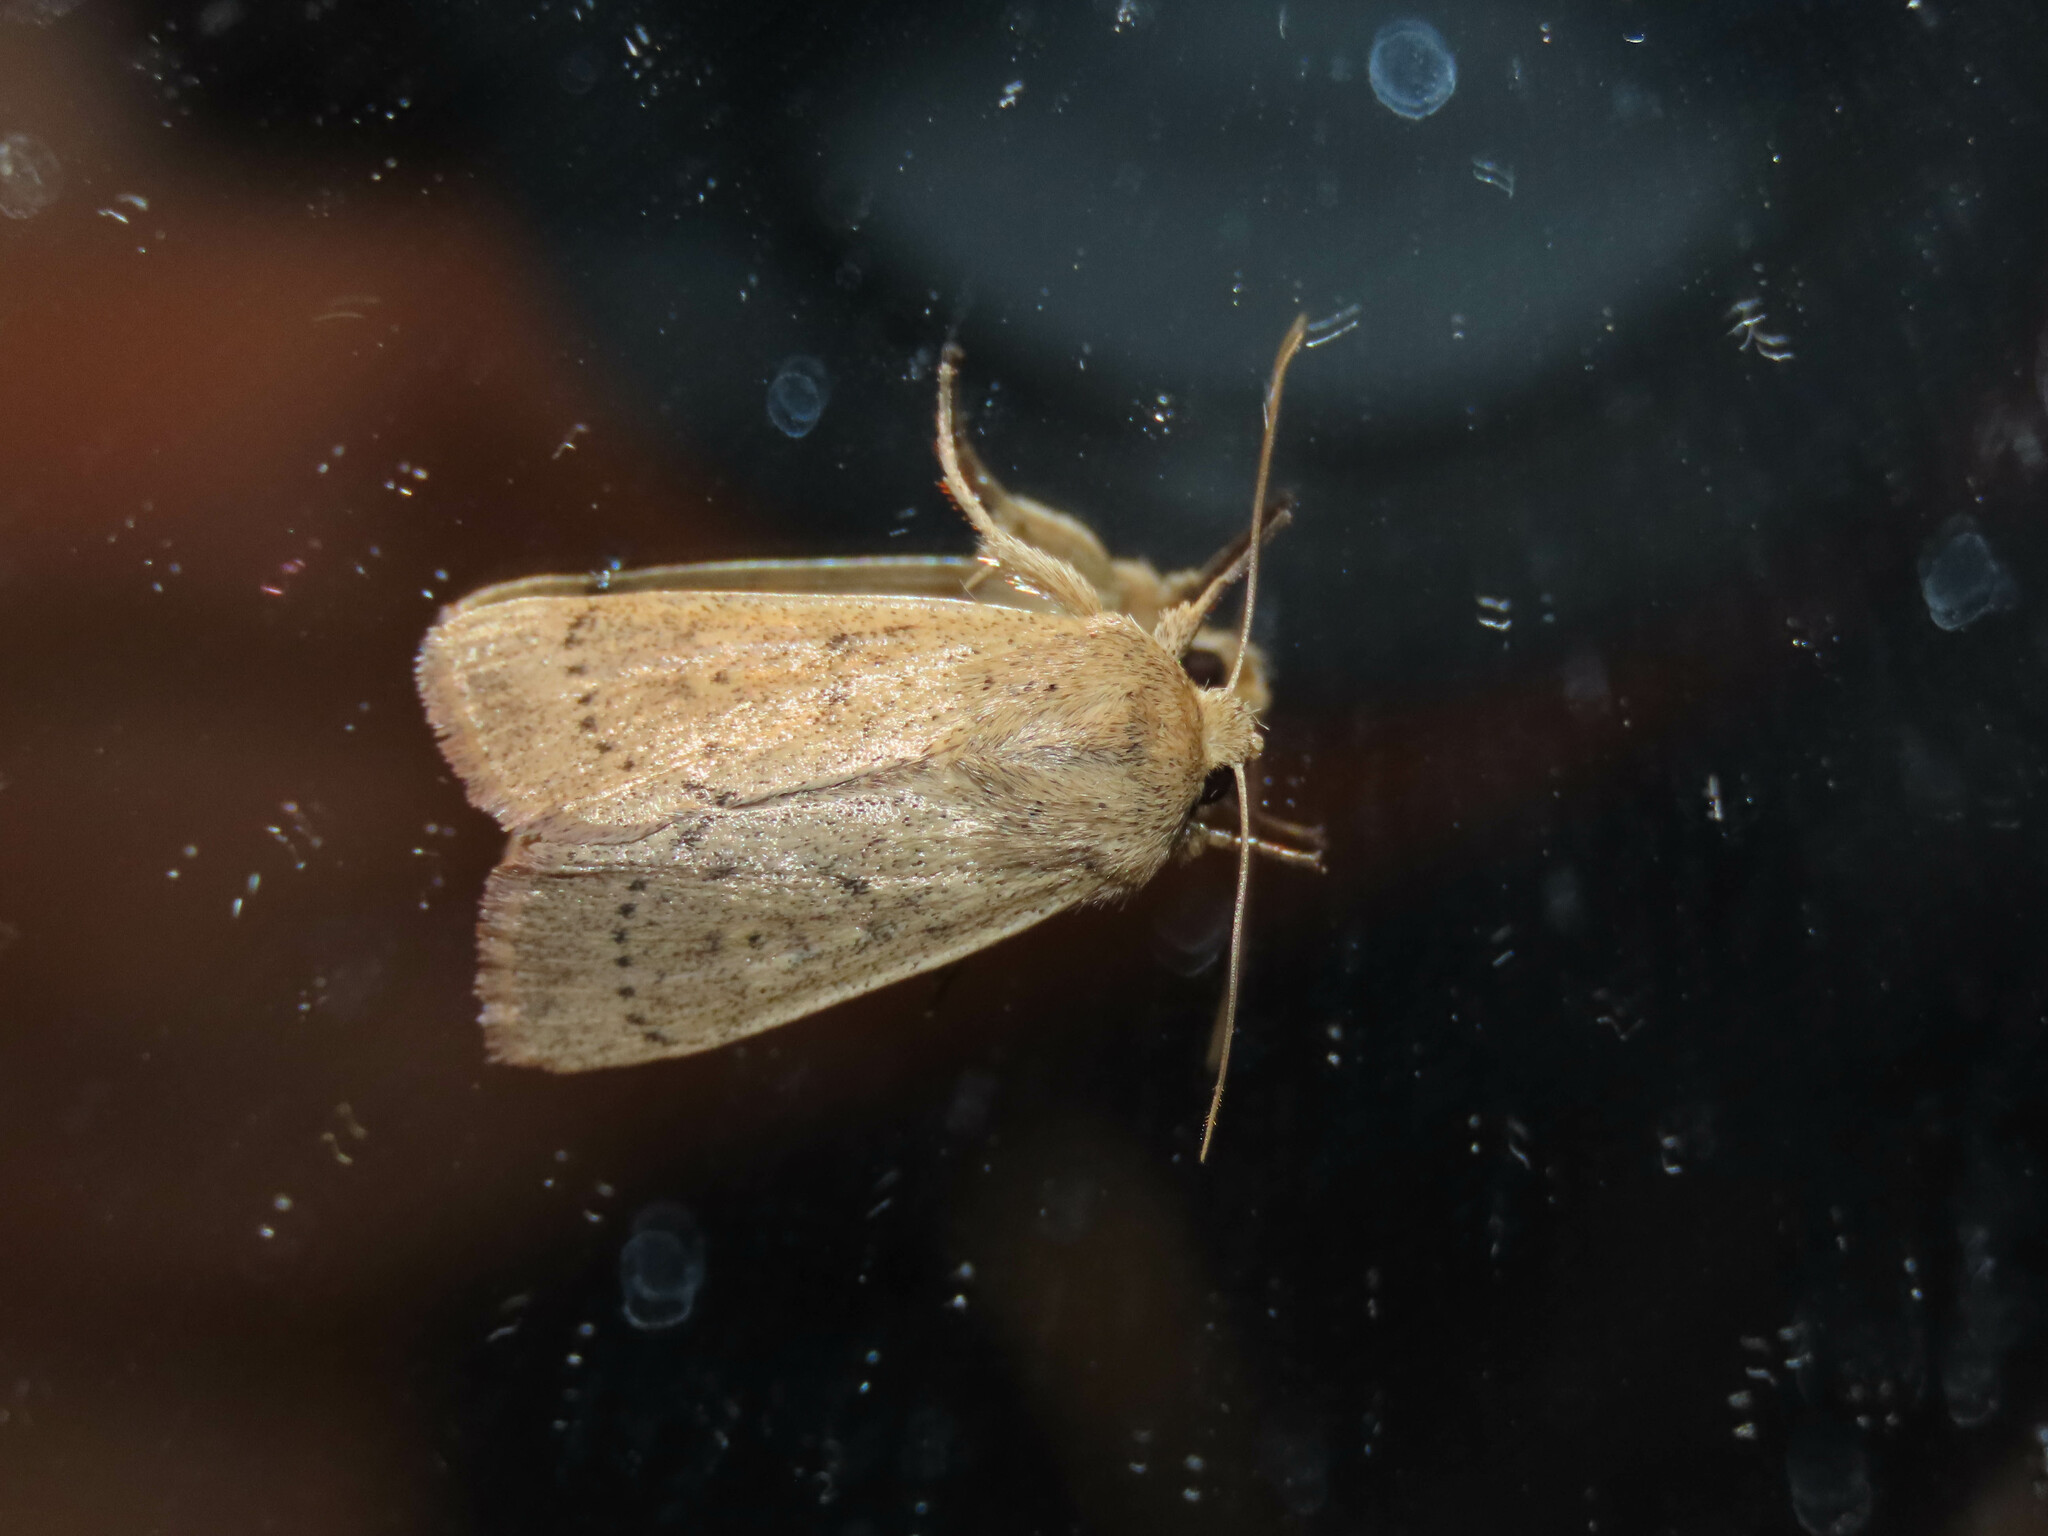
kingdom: Animalia
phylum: Arthropoda
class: Insecta
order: Lepidoptera
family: Noctuidae
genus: Leucania
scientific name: Leucania ursula
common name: Ursula wainscot
